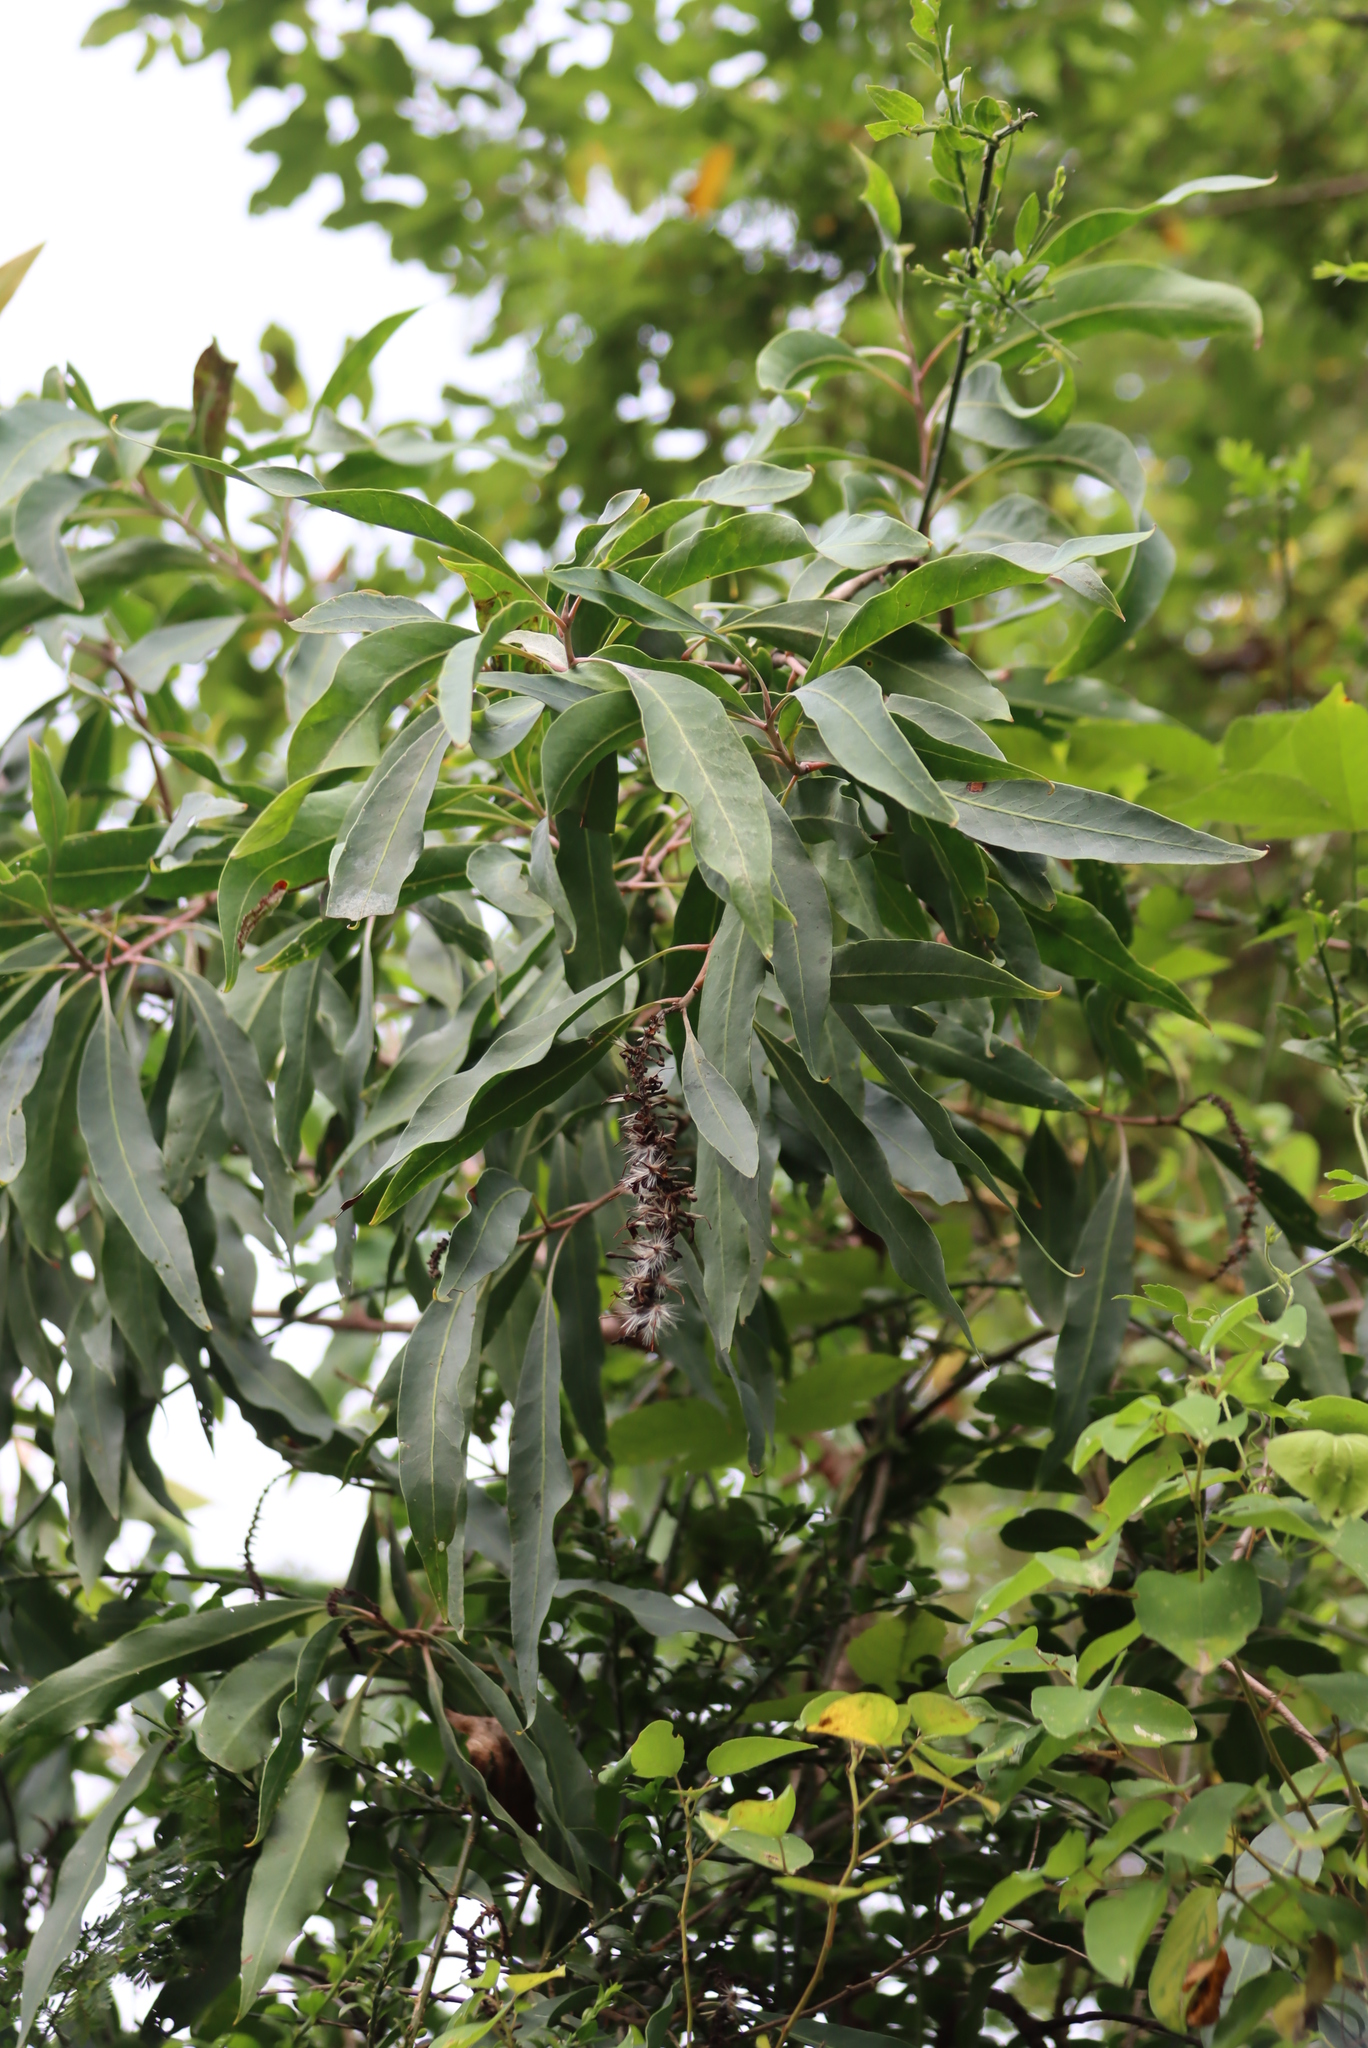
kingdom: Plantae
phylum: Tracheophyta
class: Magnoliopsida
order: Proteales
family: Proteaceae
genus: Faurea
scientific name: Faurea saligna
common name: African bean
